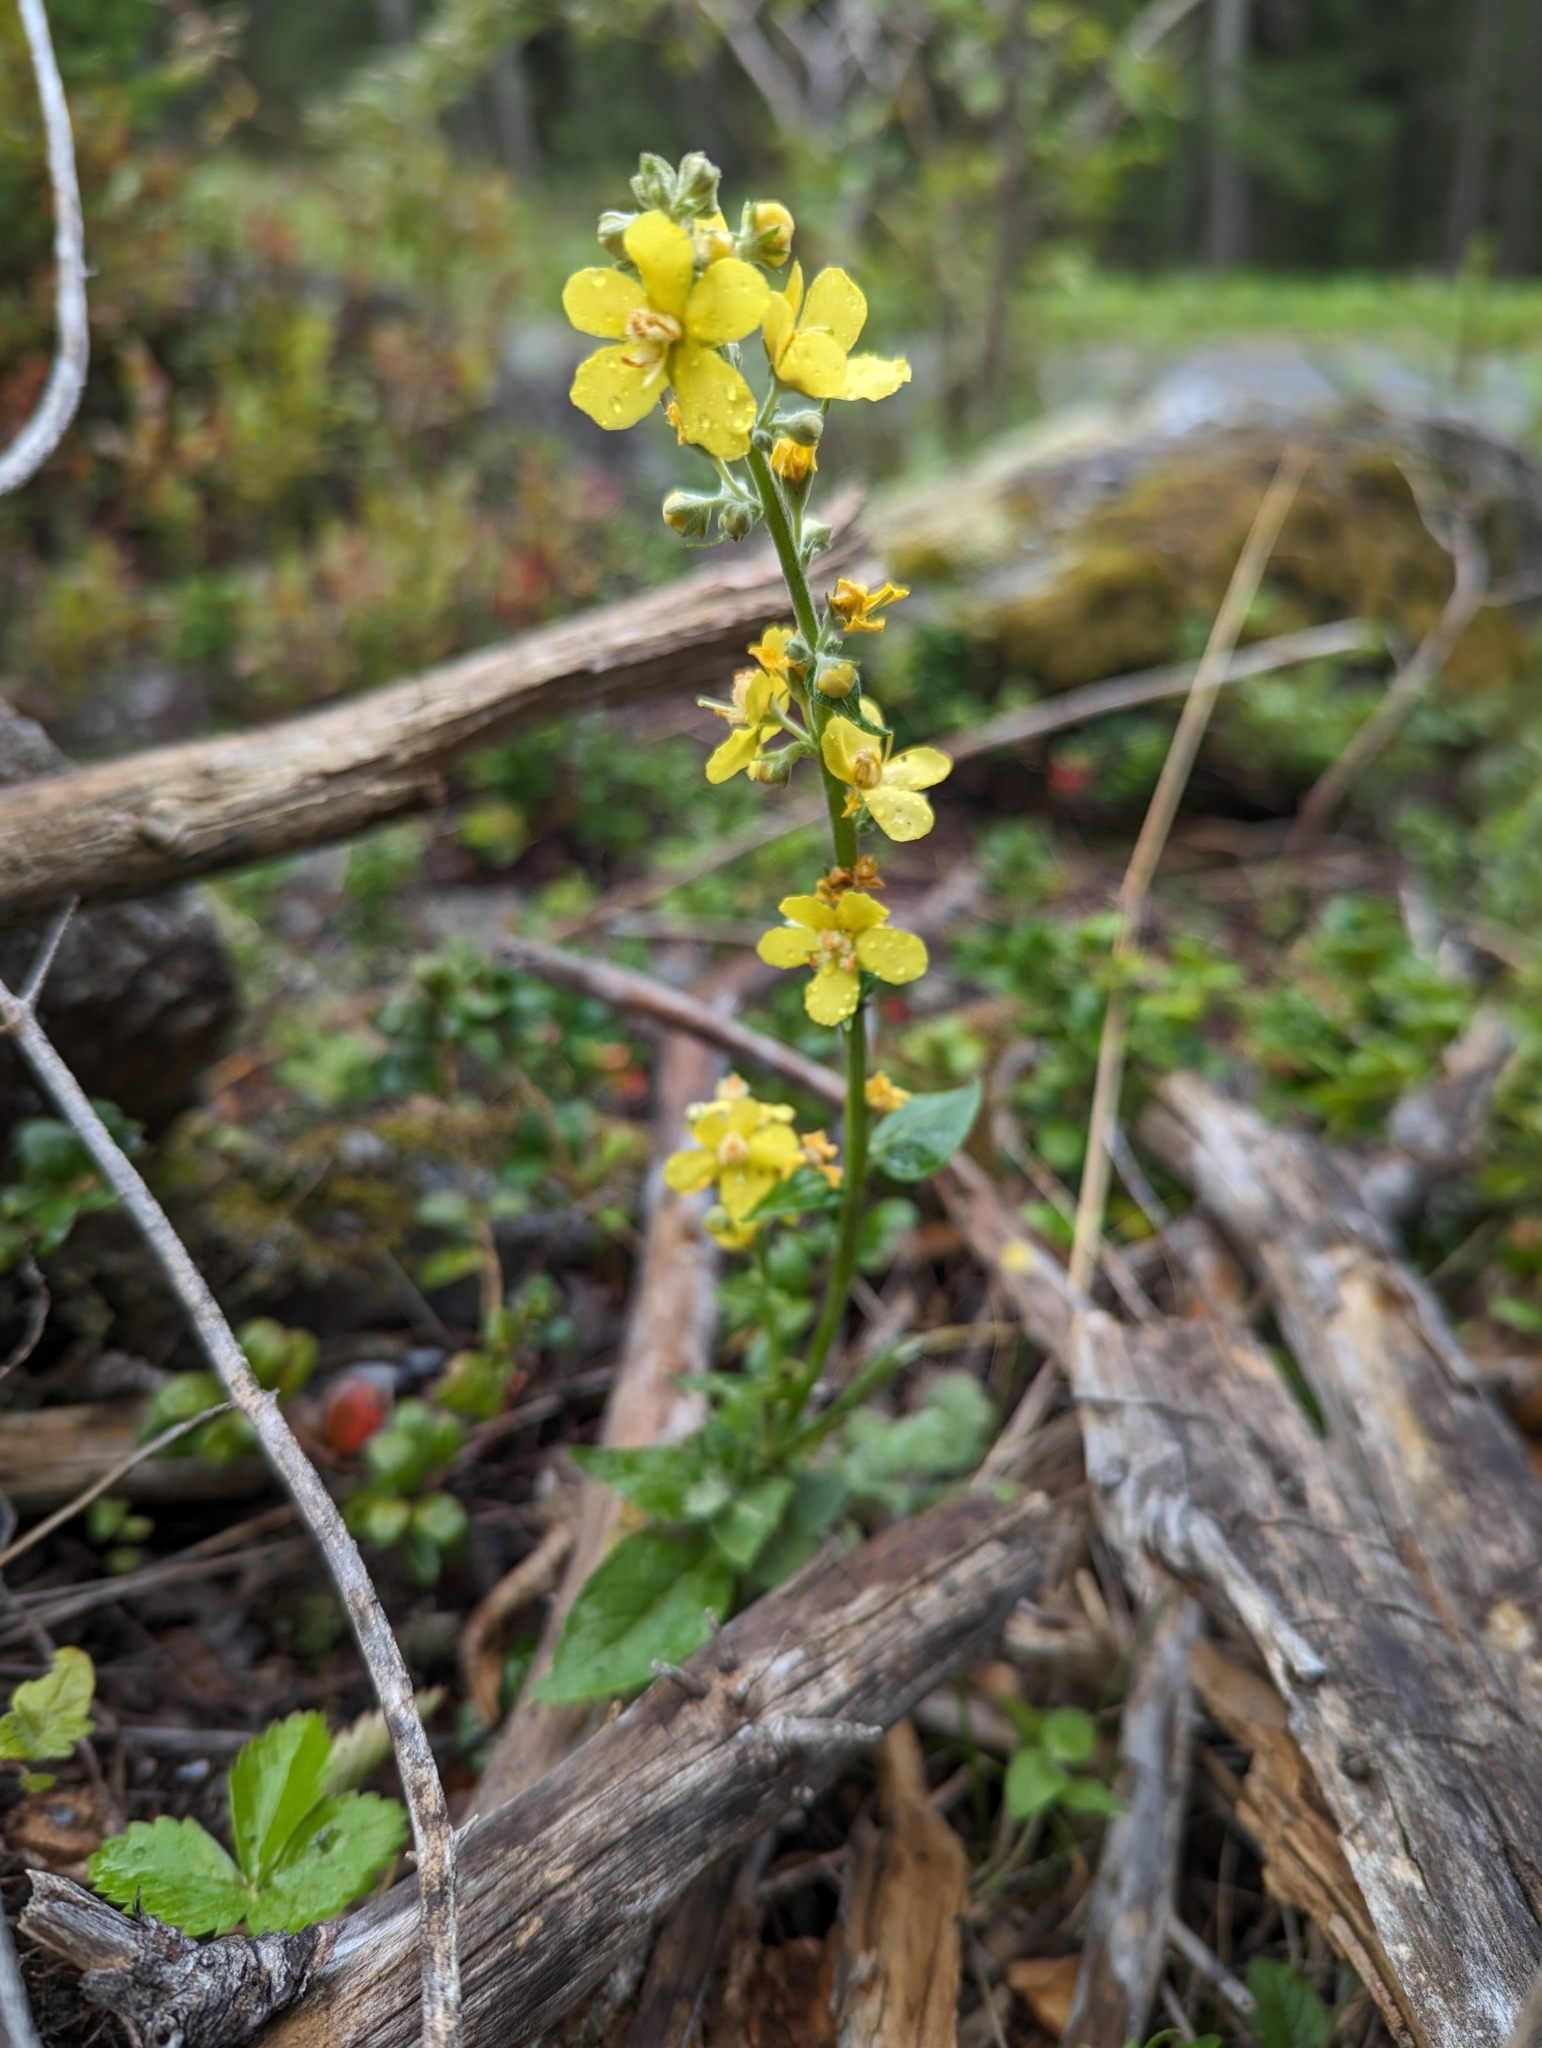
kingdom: Plantae
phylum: Tracheophyta
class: Magnoliopsida
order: Lamiales
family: Scrophulariaceae
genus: Verbascum
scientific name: Verbascum lychnitis
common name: White mullein
